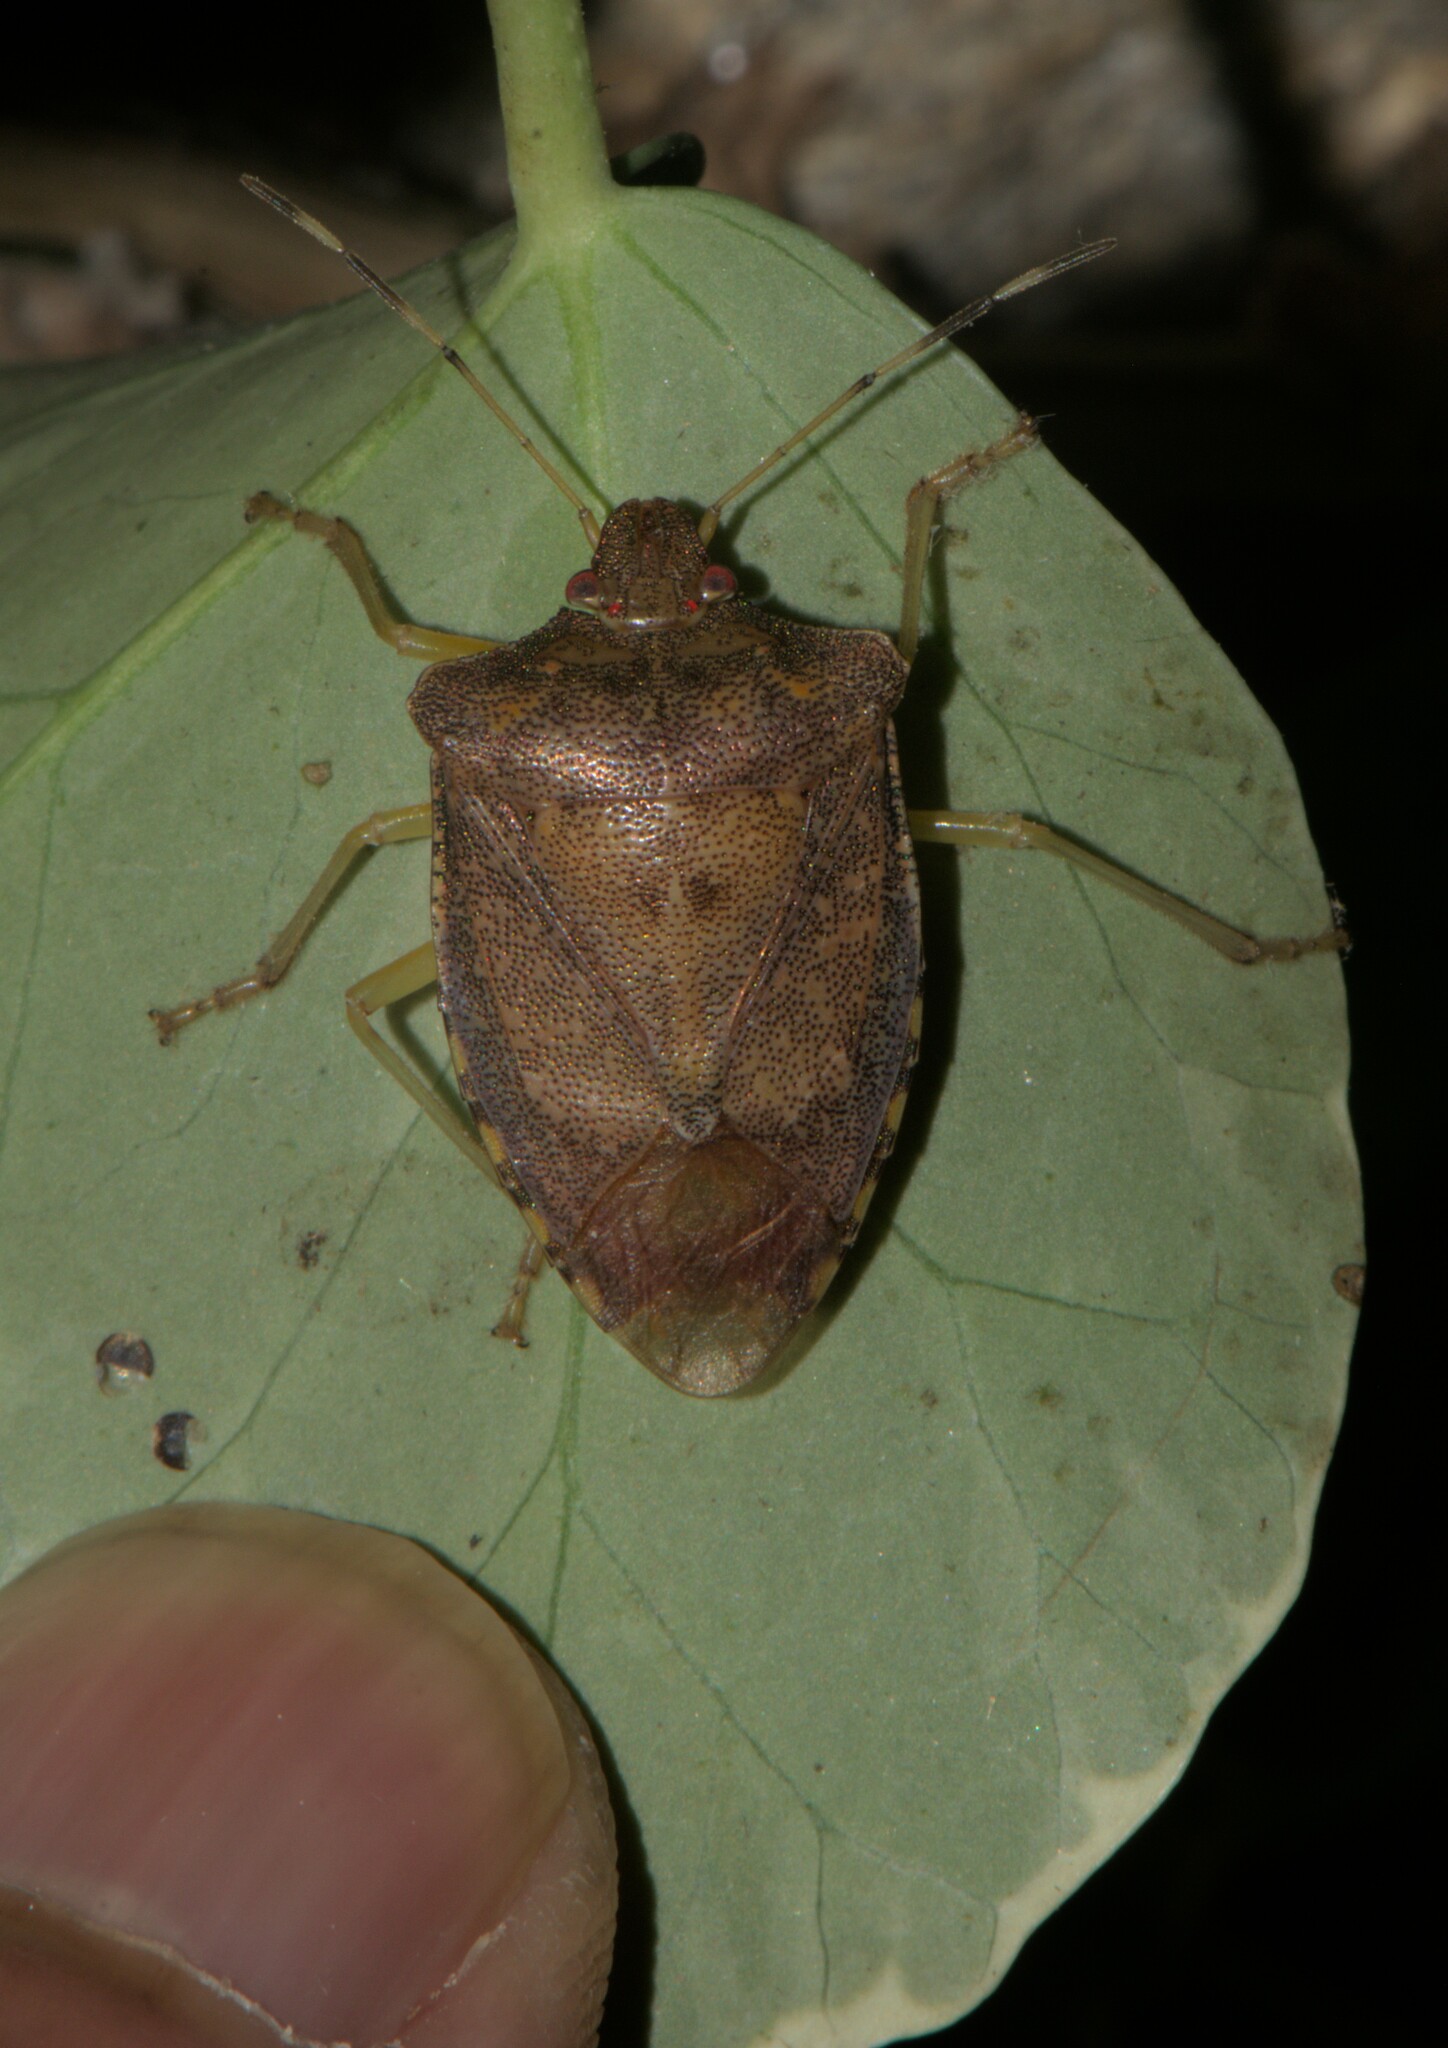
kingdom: Animalia
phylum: Arthropoda
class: Insecta
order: Hemiptera
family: Pentatomidae
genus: Pentatoma
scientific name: Pentatoma
